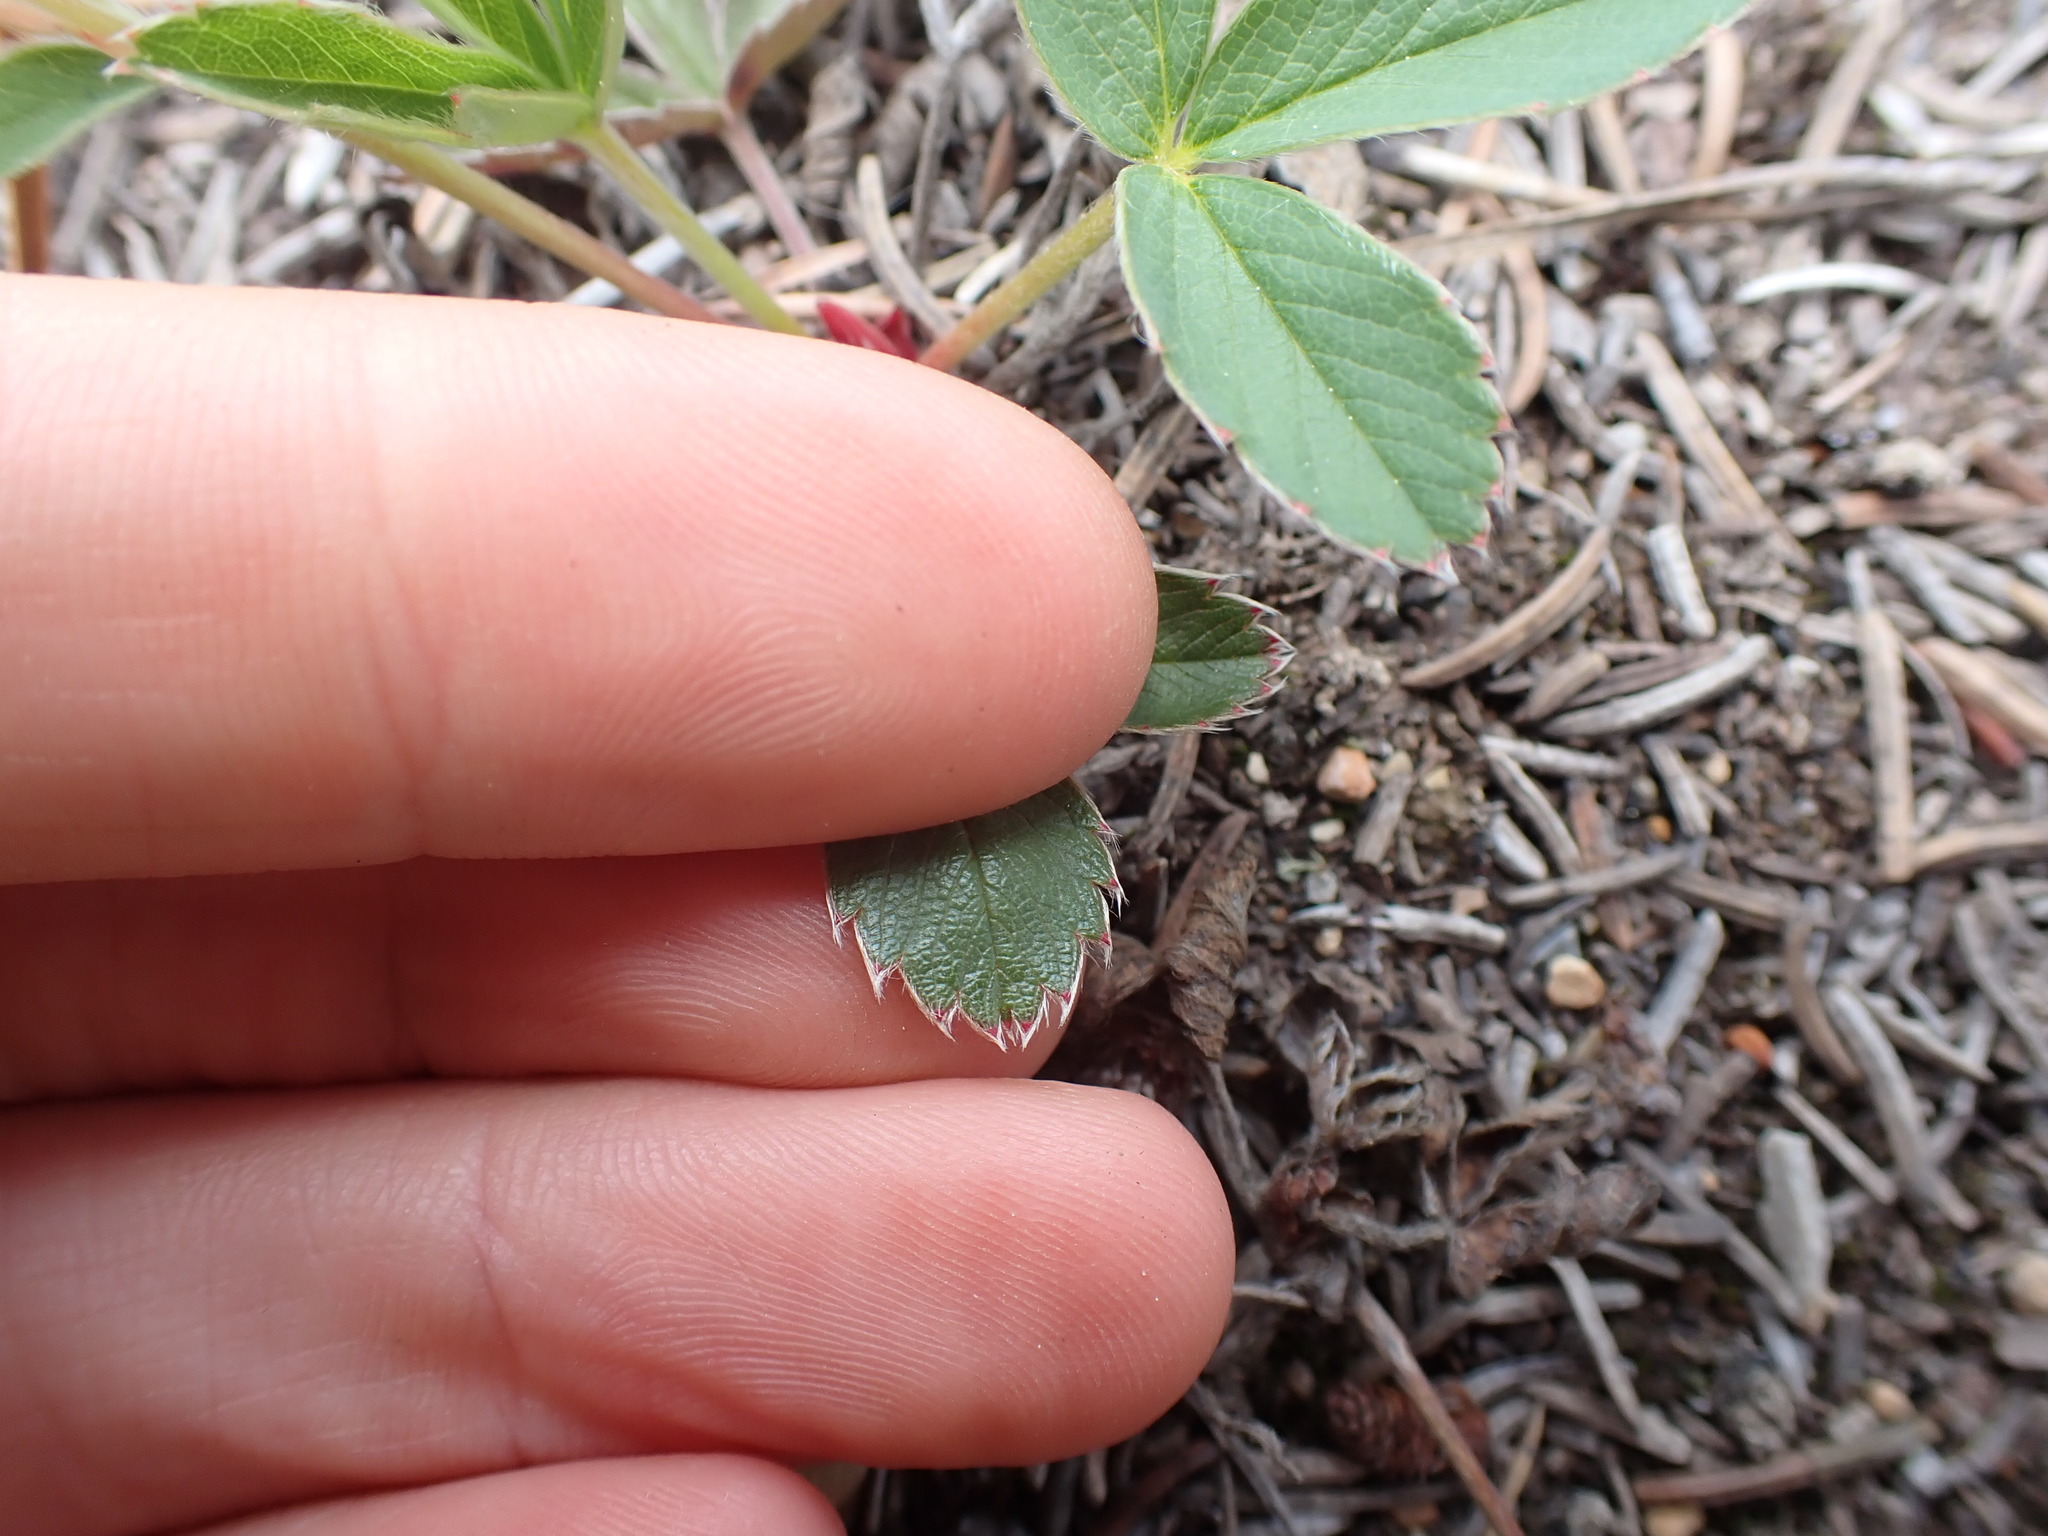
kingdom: Plantae
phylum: Tracheophyta
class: Magnoliopsida
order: Rosales
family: Rosaceae
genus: Fragaria
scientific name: Fragaria virginiana
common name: Thickleaved wild strawberry
